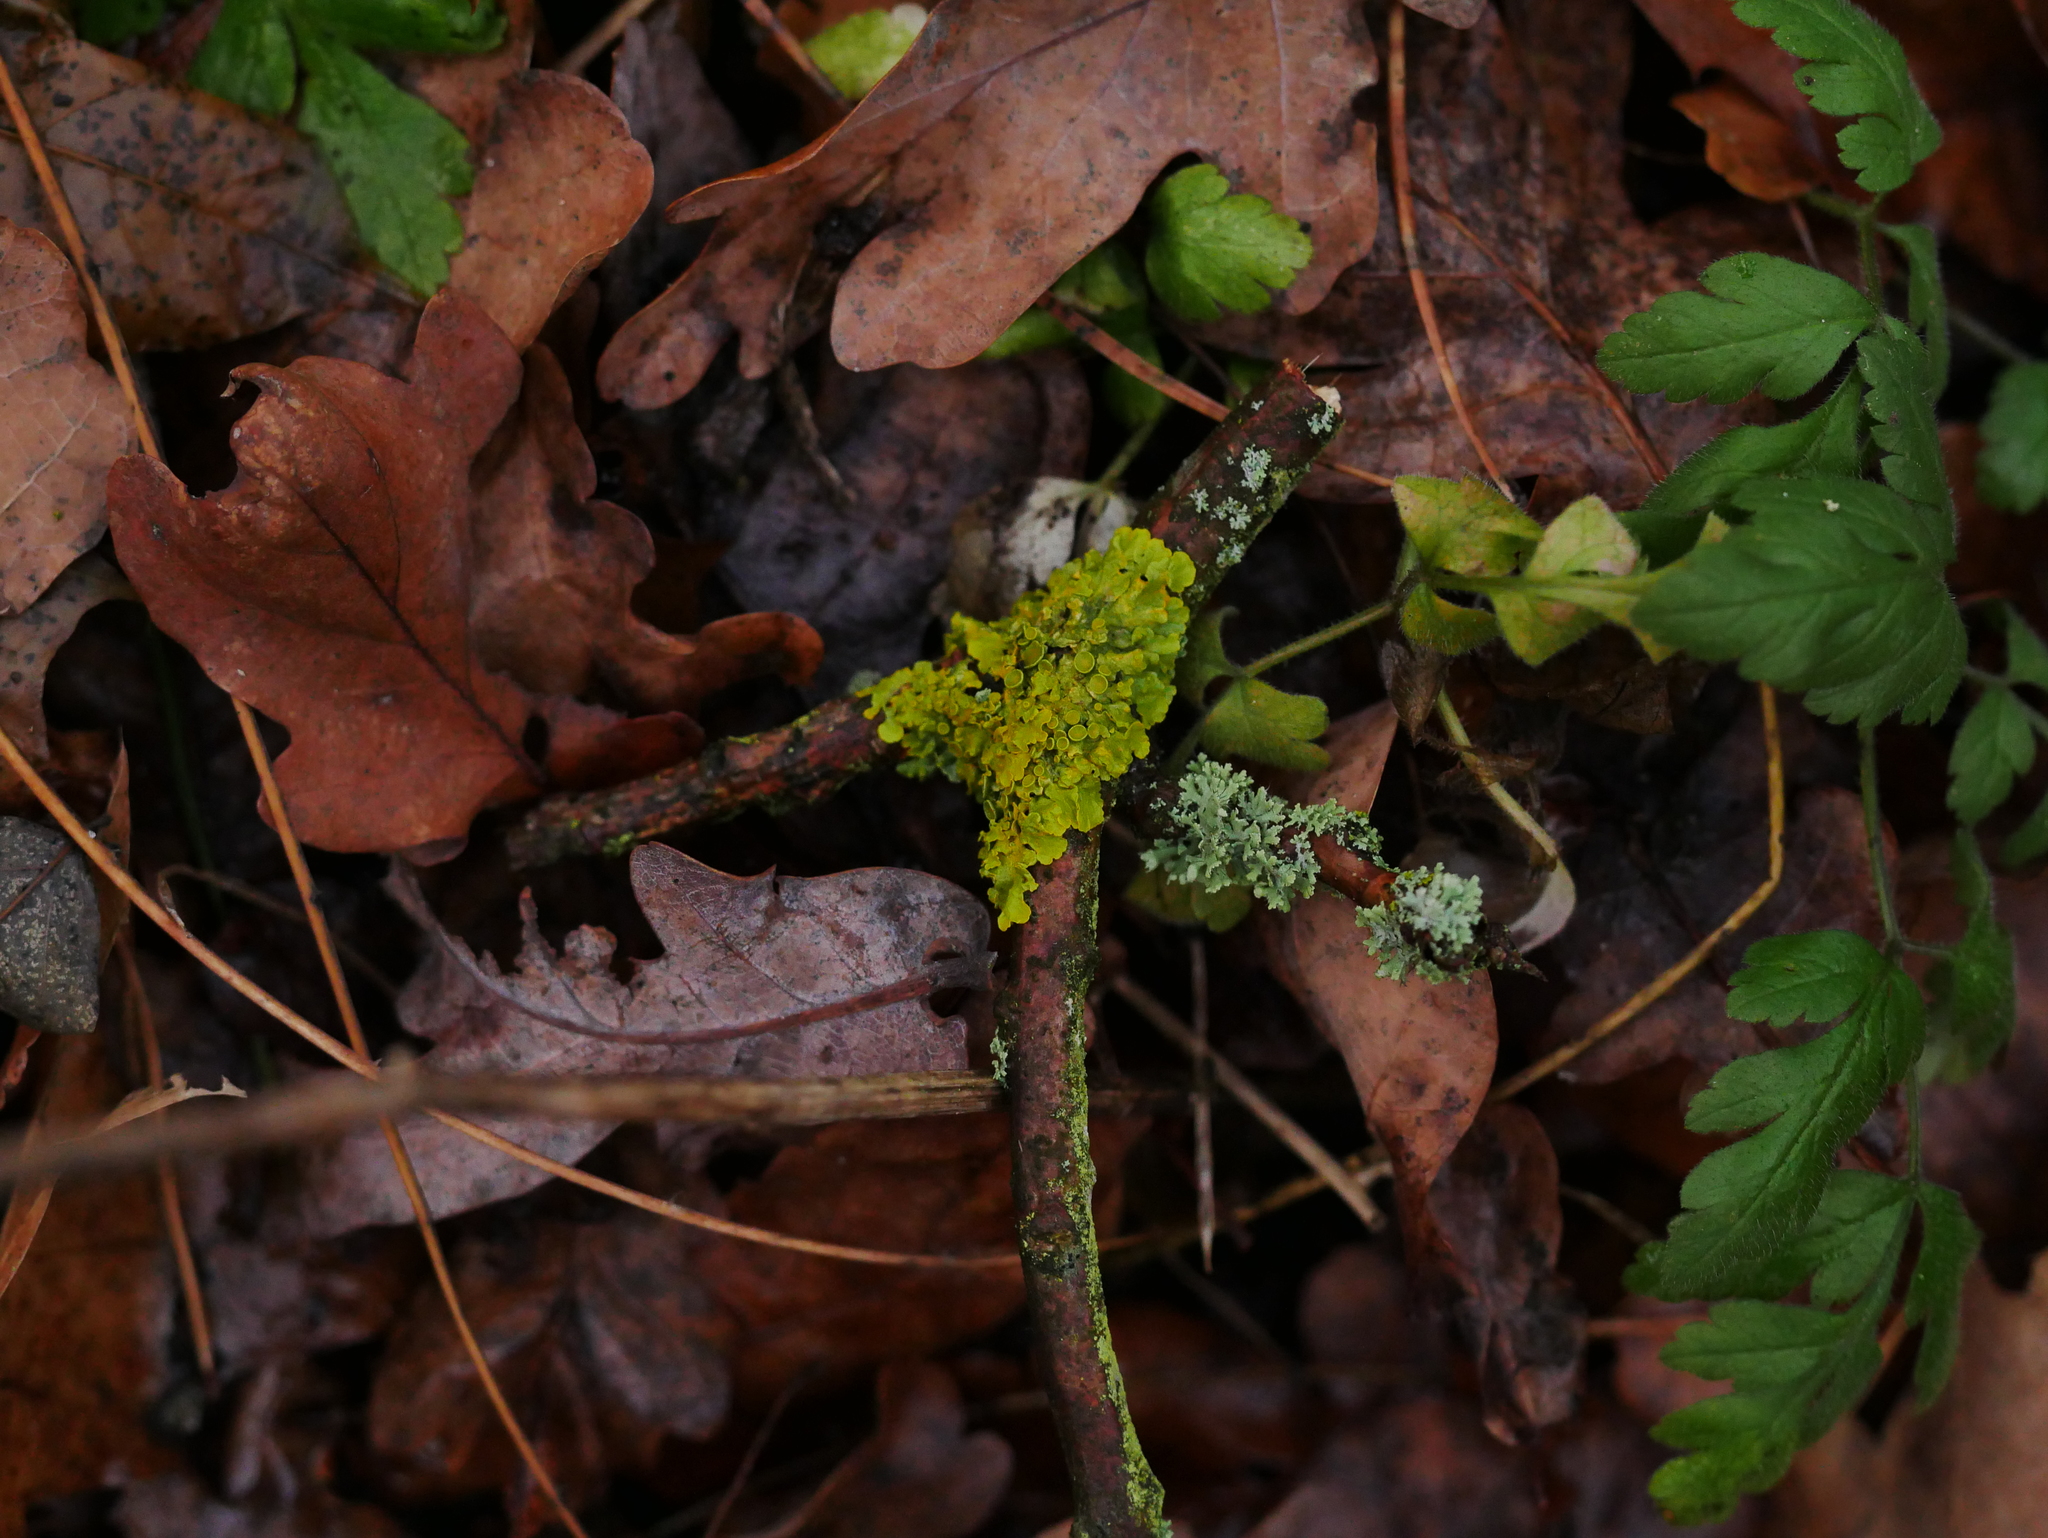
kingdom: Fungi
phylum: Ascomycota
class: Lecanoromycetes
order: Teloschistales
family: Teloschistaceae
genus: Xanthoria
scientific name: Xanthoria parietina
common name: Common orange lichen
